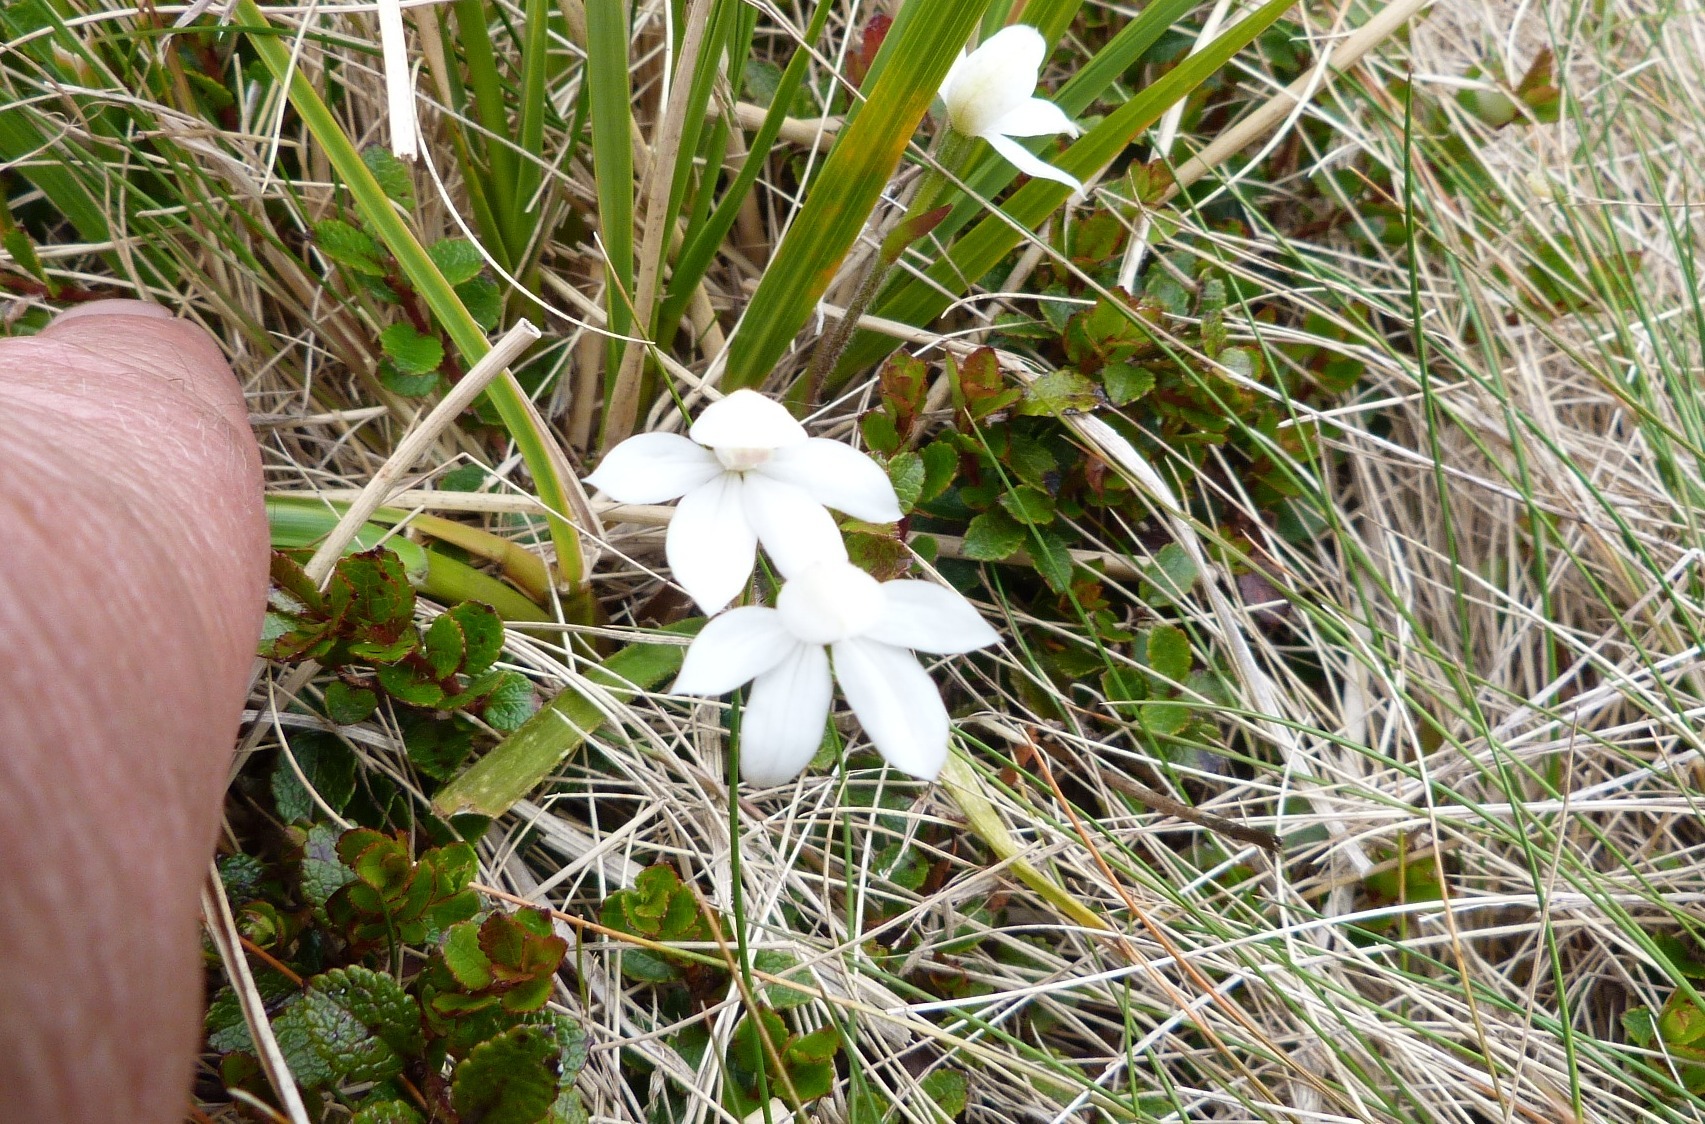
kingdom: Plantae
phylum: Tracheophyta
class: Liliopsida
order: Asparagales
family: Orchidaceae
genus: Caladenia
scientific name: Caladenia lyallii
